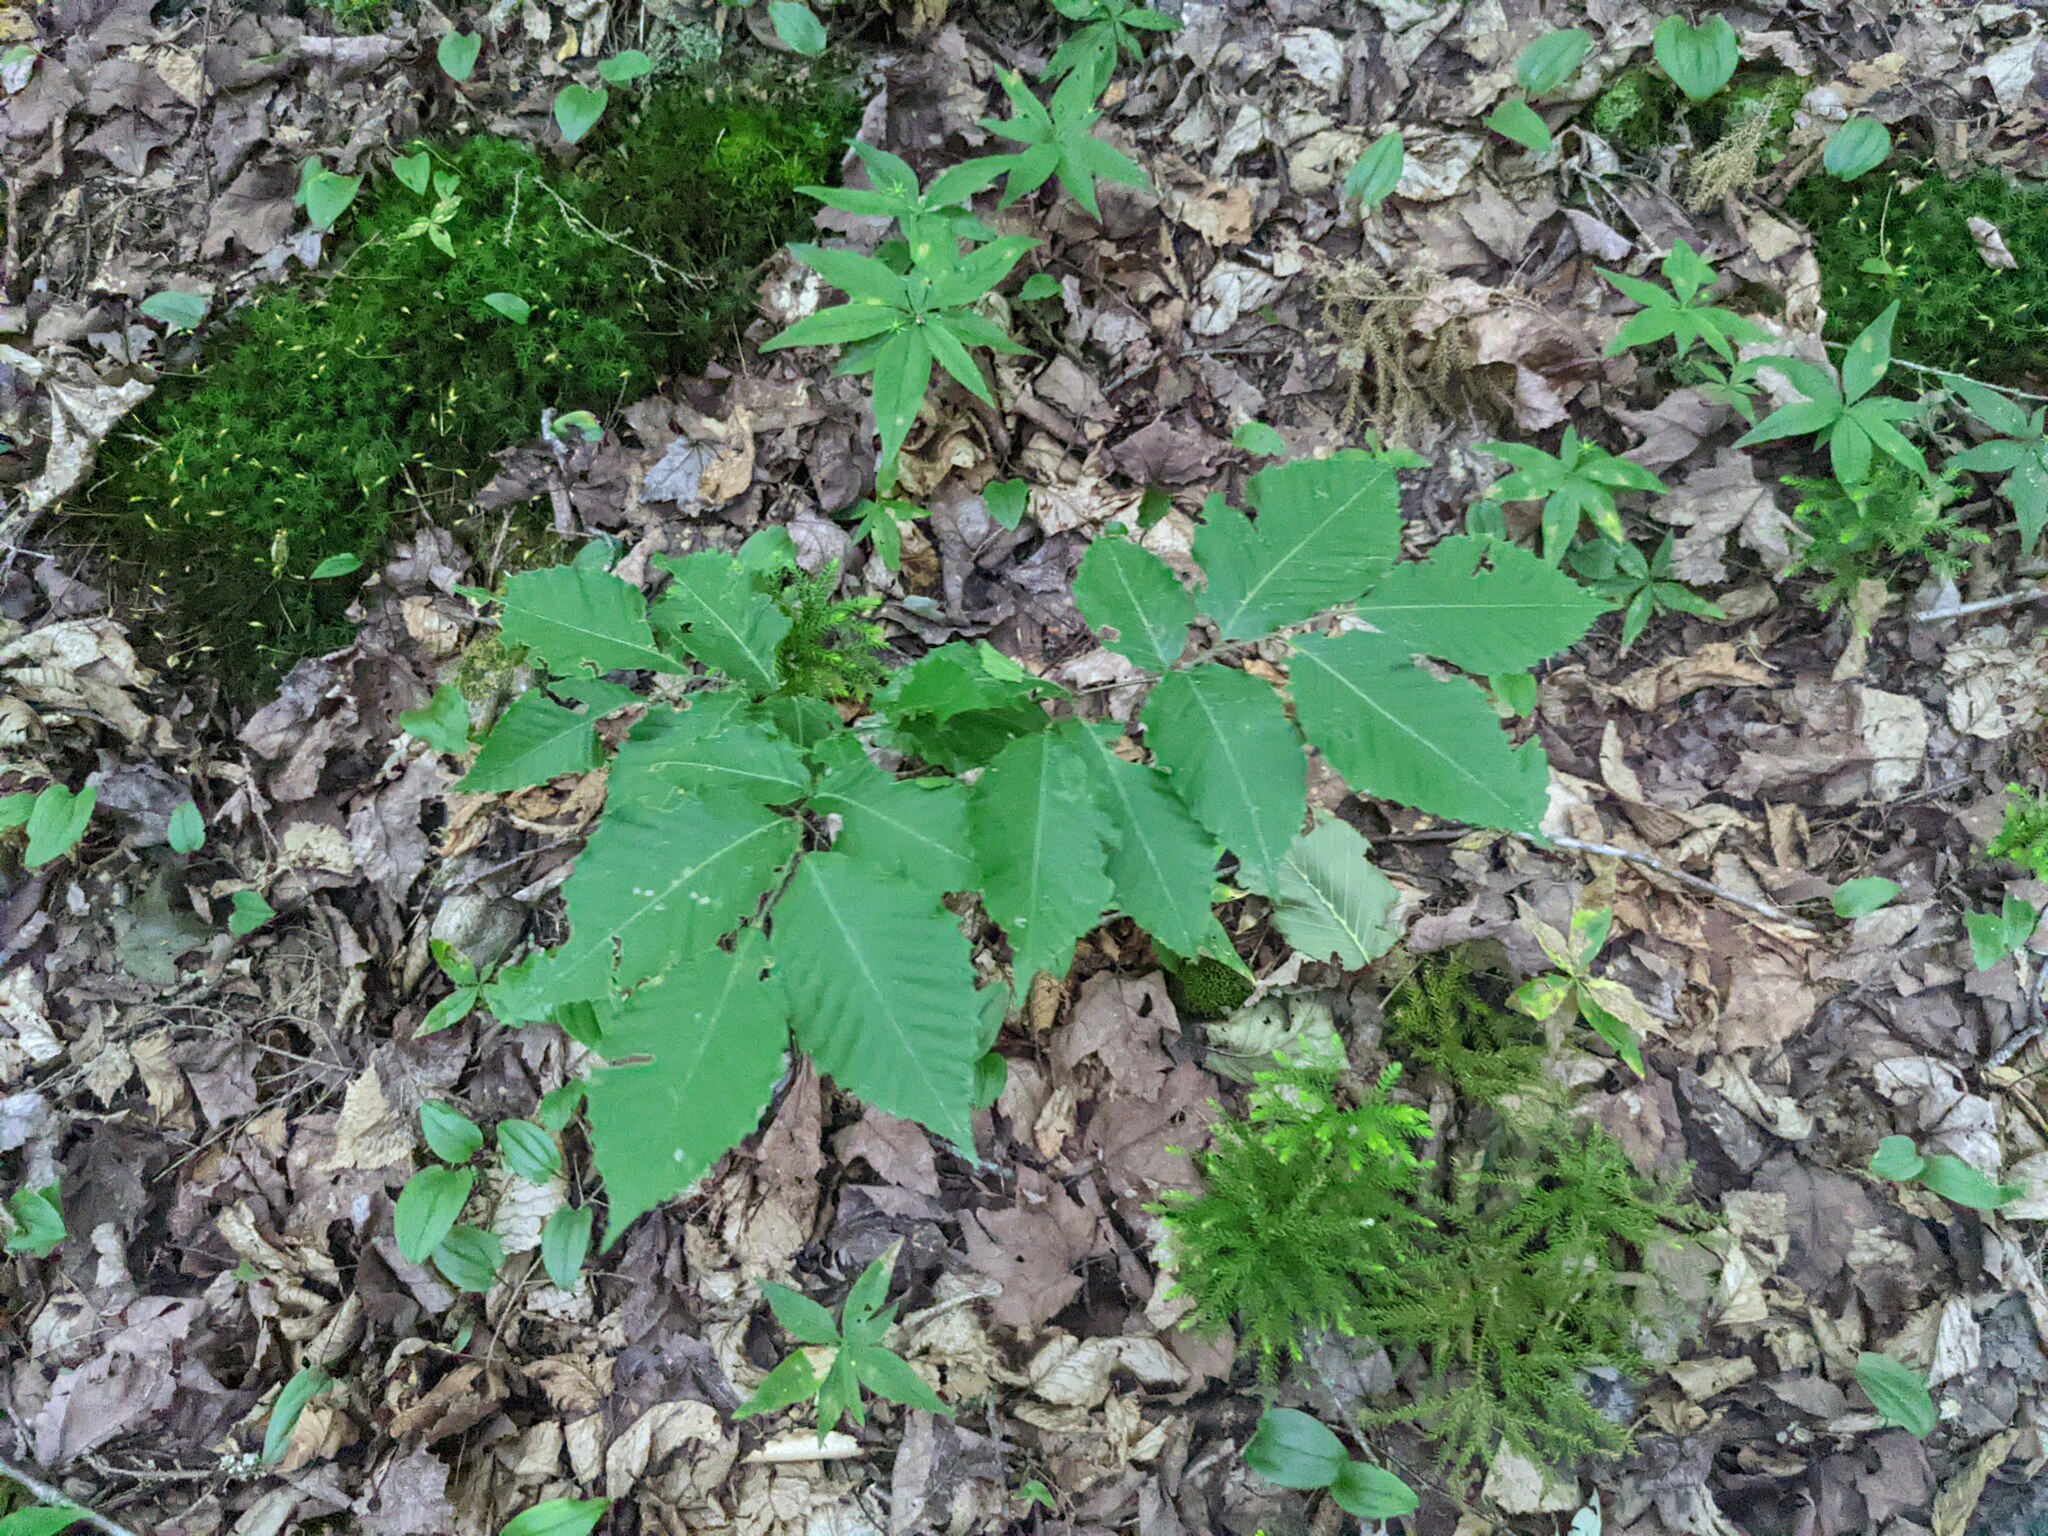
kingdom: Plantae
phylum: Tracheophyta
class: Magnoliopsida
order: Fagales
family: Fagaceae
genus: Fagus
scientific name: Fagus grandifolia
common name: American beech
